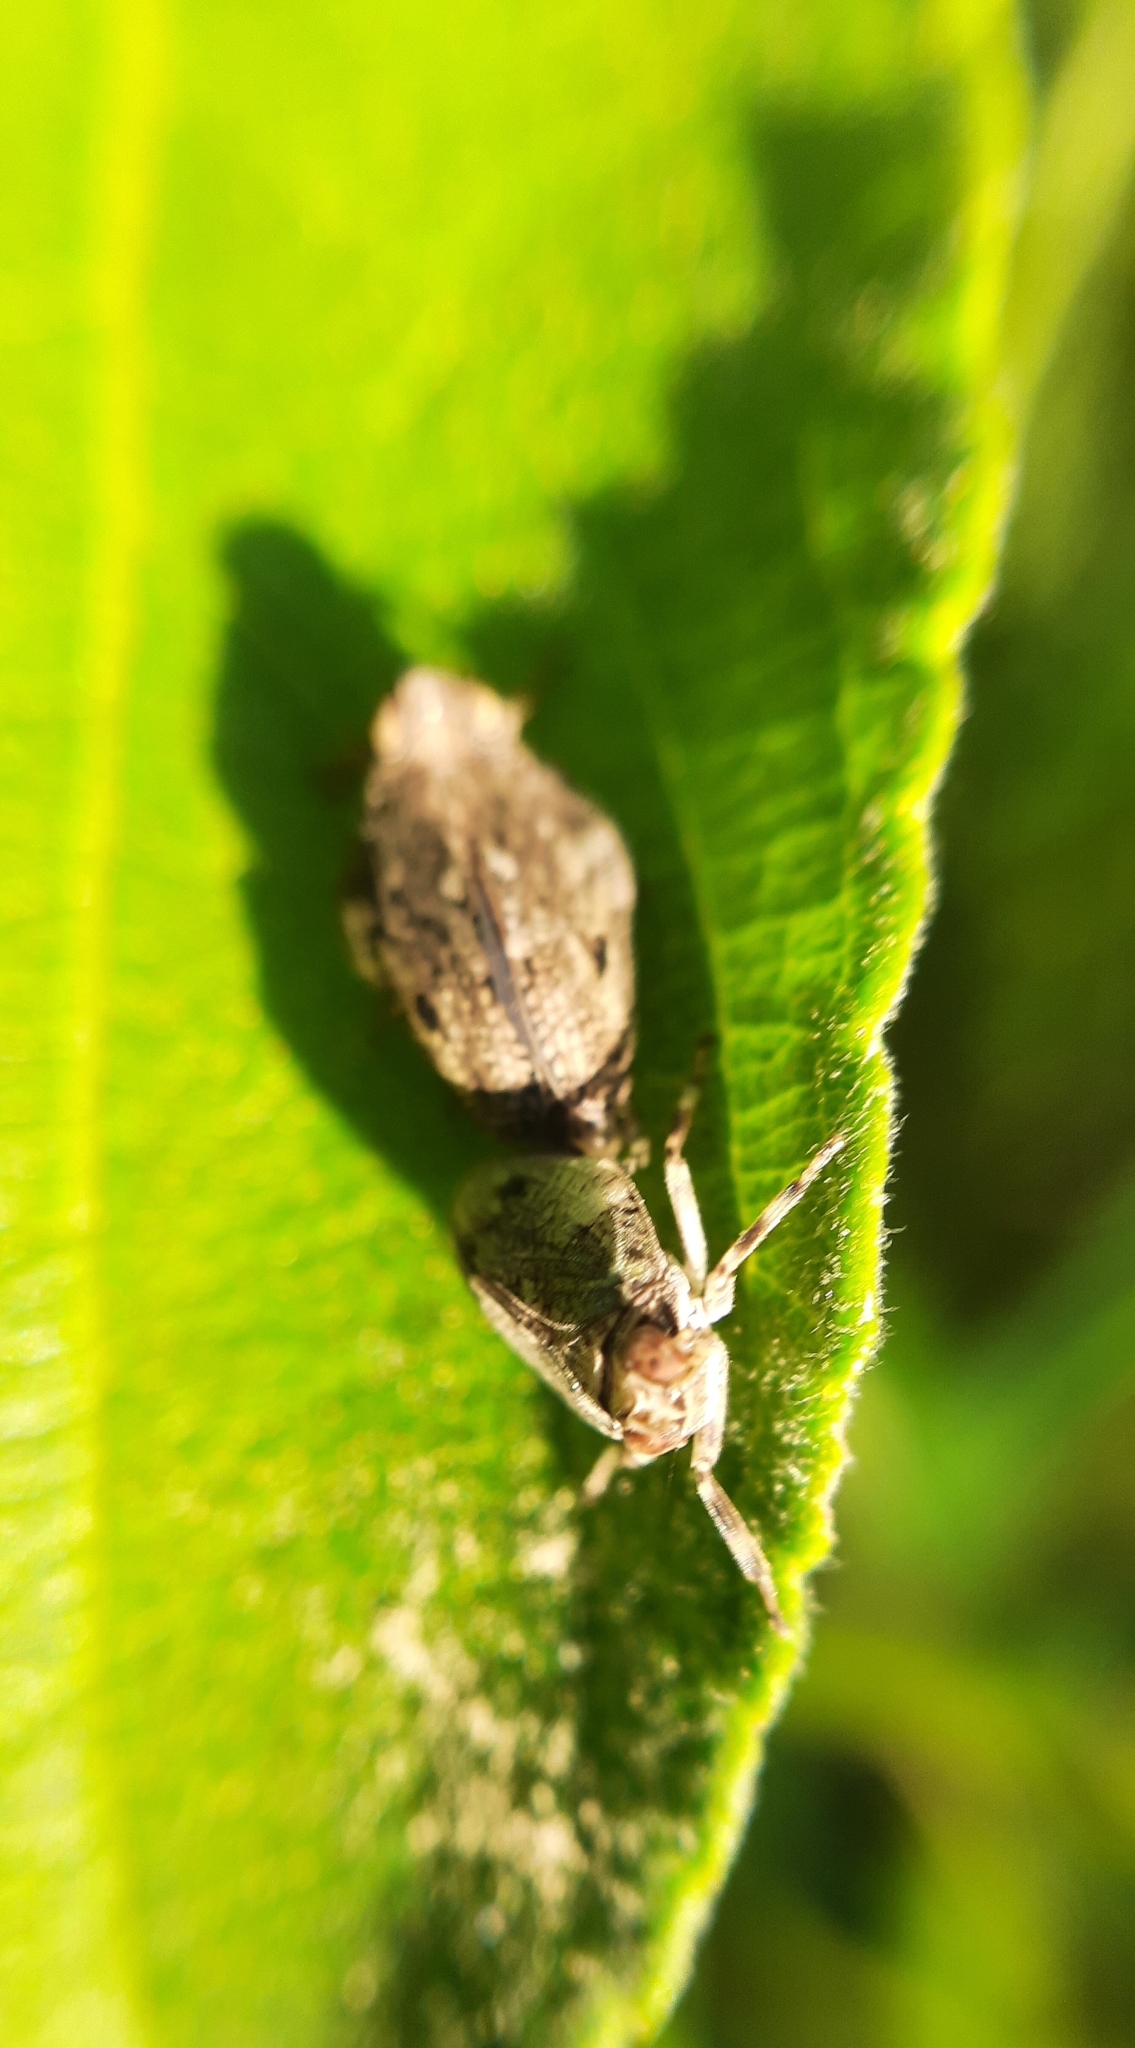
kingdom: Animalia
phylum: Arthropoda
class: Insecta
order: Hemiptera
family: Issidae
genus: Issus
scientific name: Issus coleoptratus
